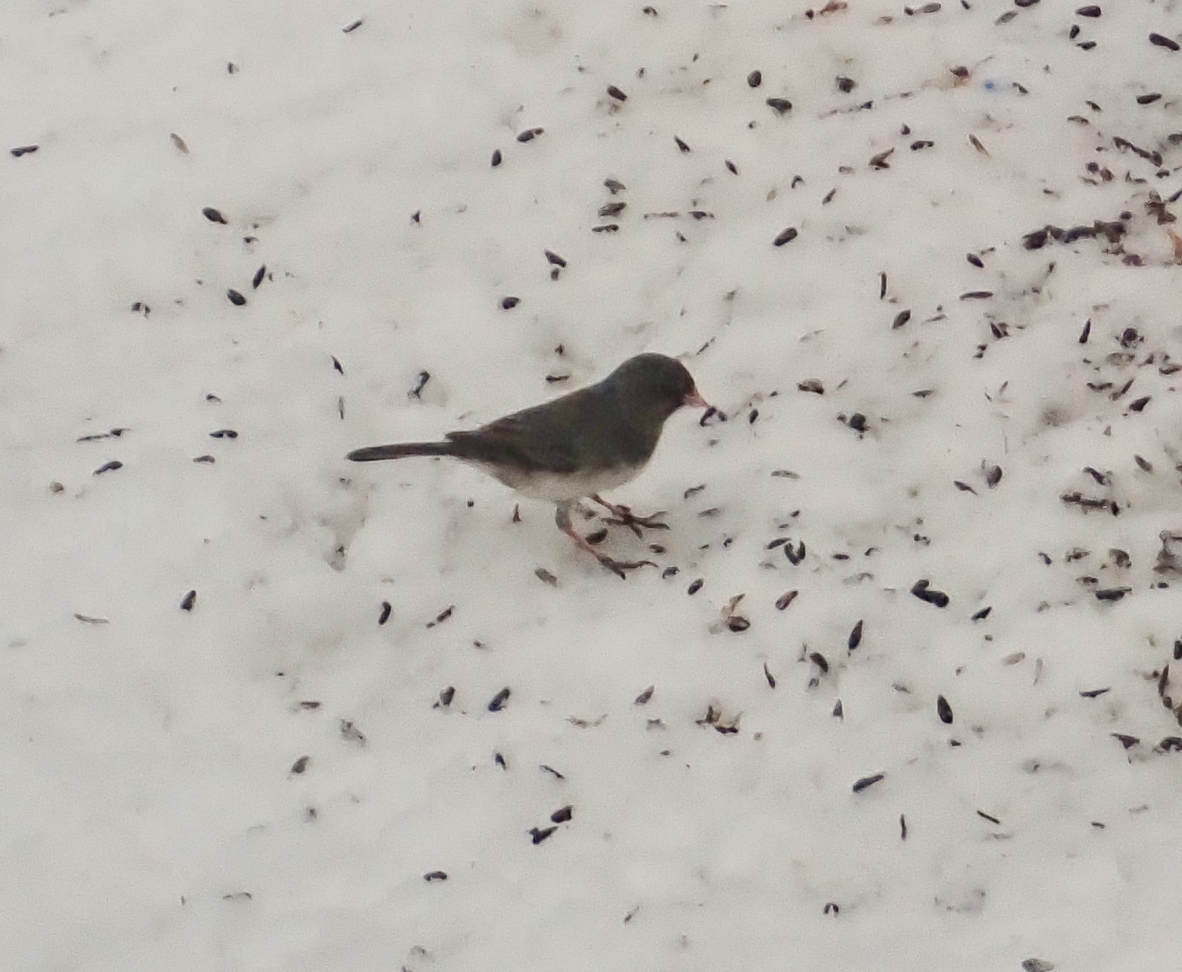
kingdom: Animalia
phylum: Chordata
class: Aves
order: Passeriformes
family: Passerellidae
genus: Junco
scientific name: Junco hyemalis
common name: Dark-eyed junco
